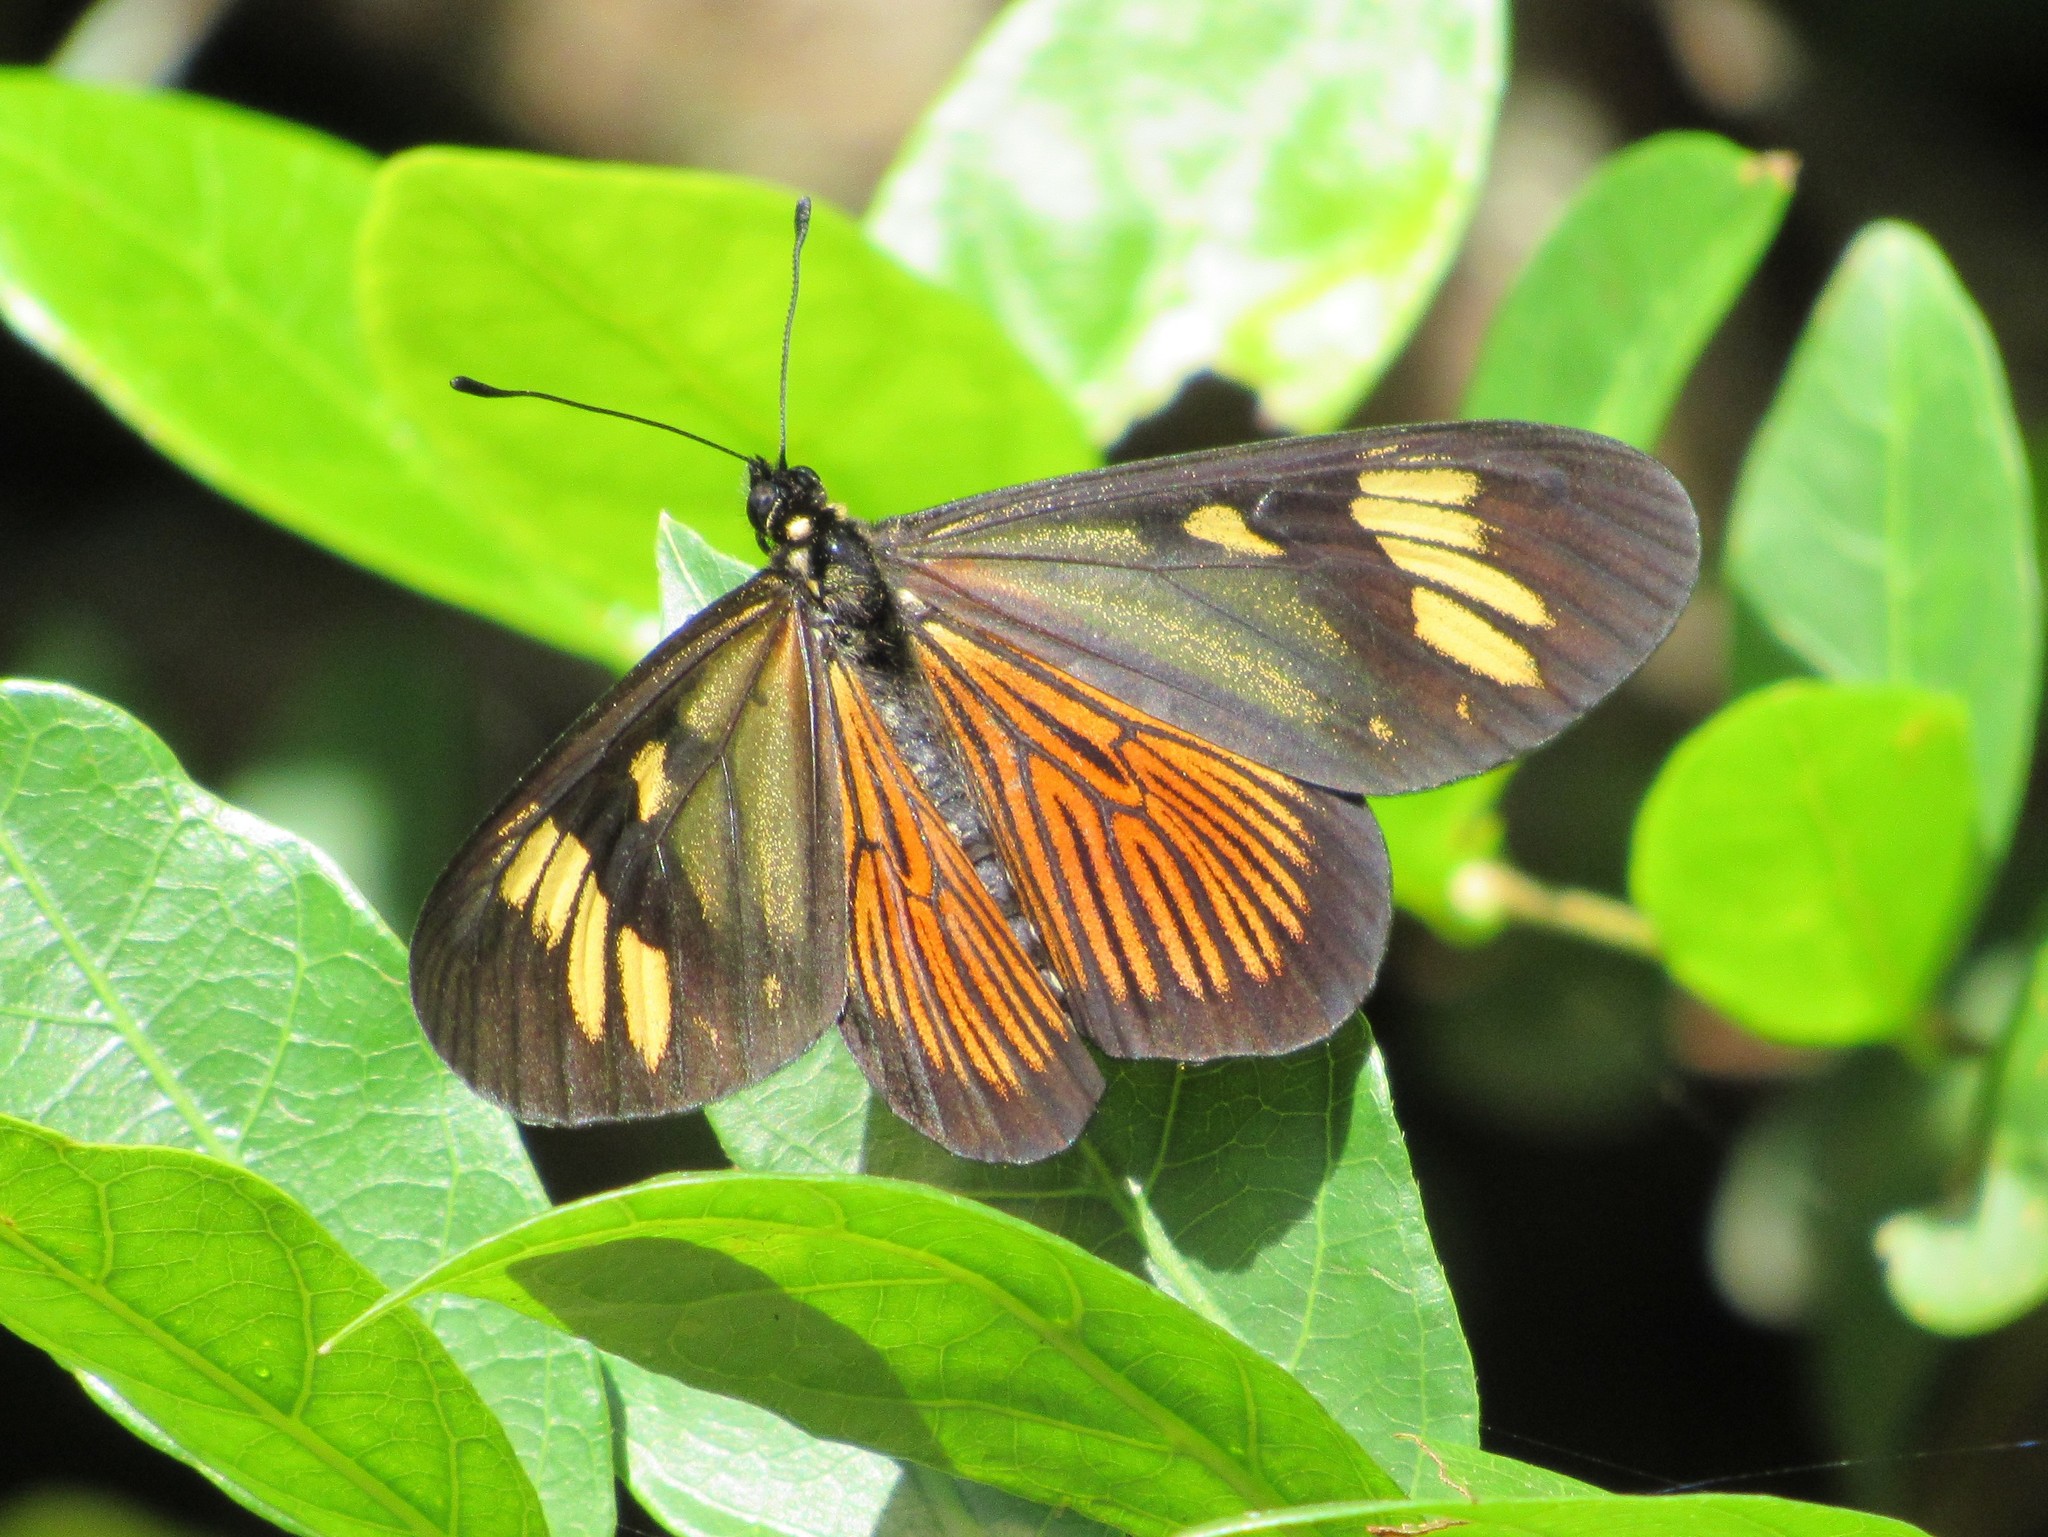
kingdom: Animalia
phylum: Arthropoda
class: Insecta
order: Lepidoptera
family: Nymphalidae
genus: Acraea
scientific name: Acraea discrepans
